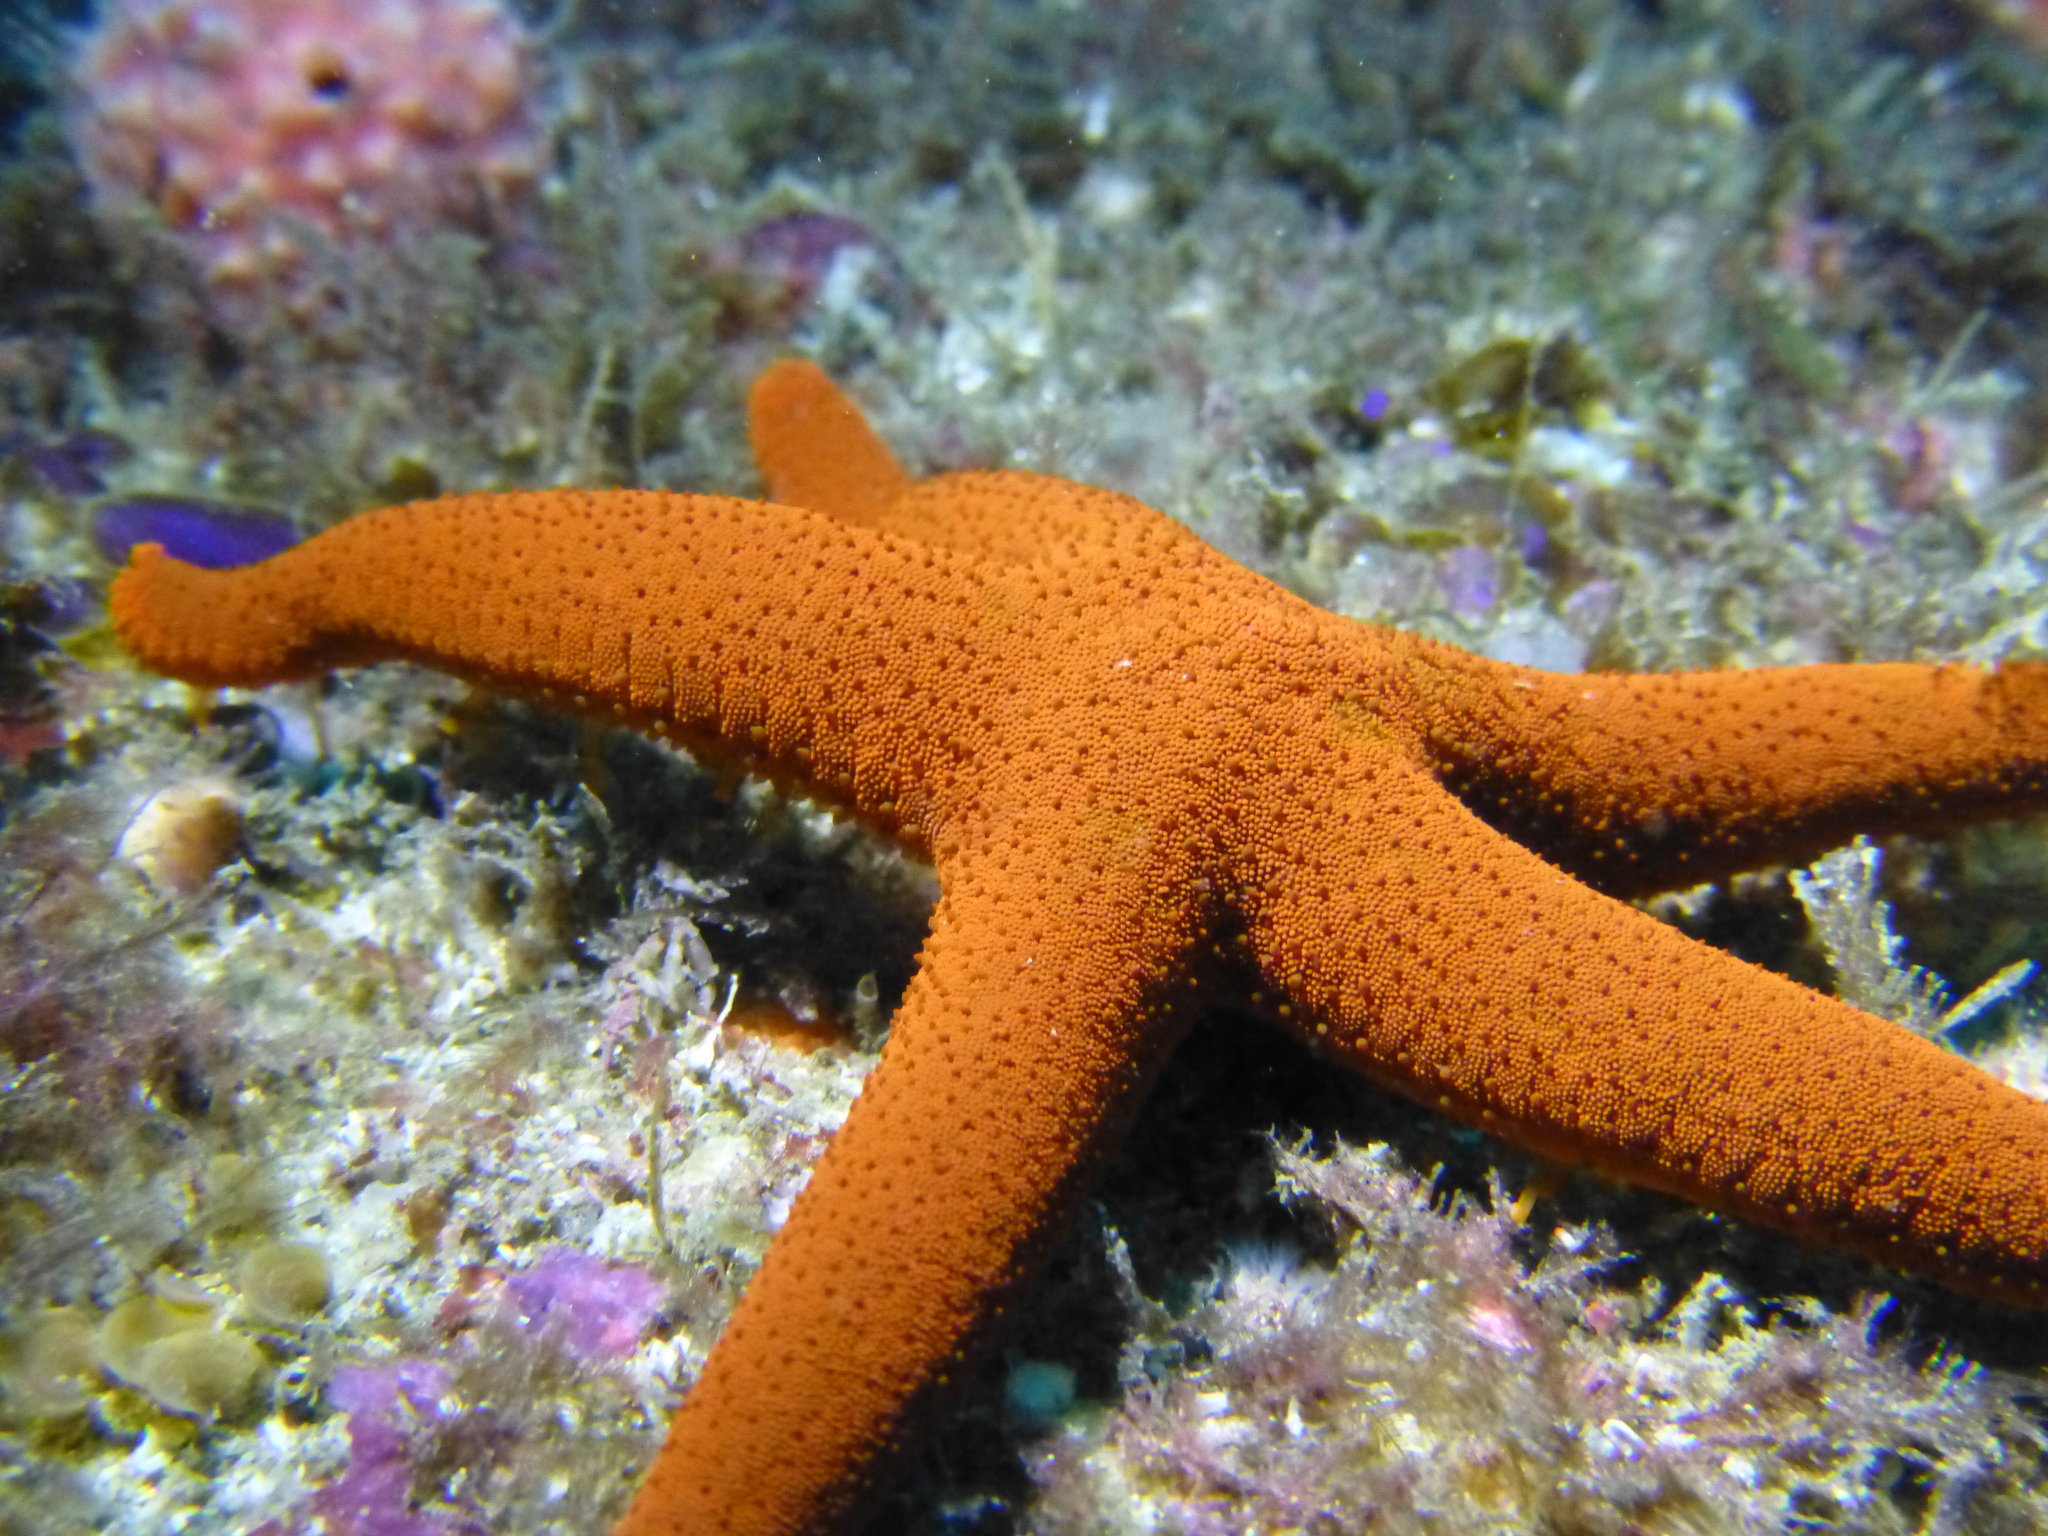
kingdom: Animalia
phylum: Echinodermata
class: Asteroidea
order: Valvatida
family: Goniasteridae
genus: Fromia
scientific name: Fromia polypora
